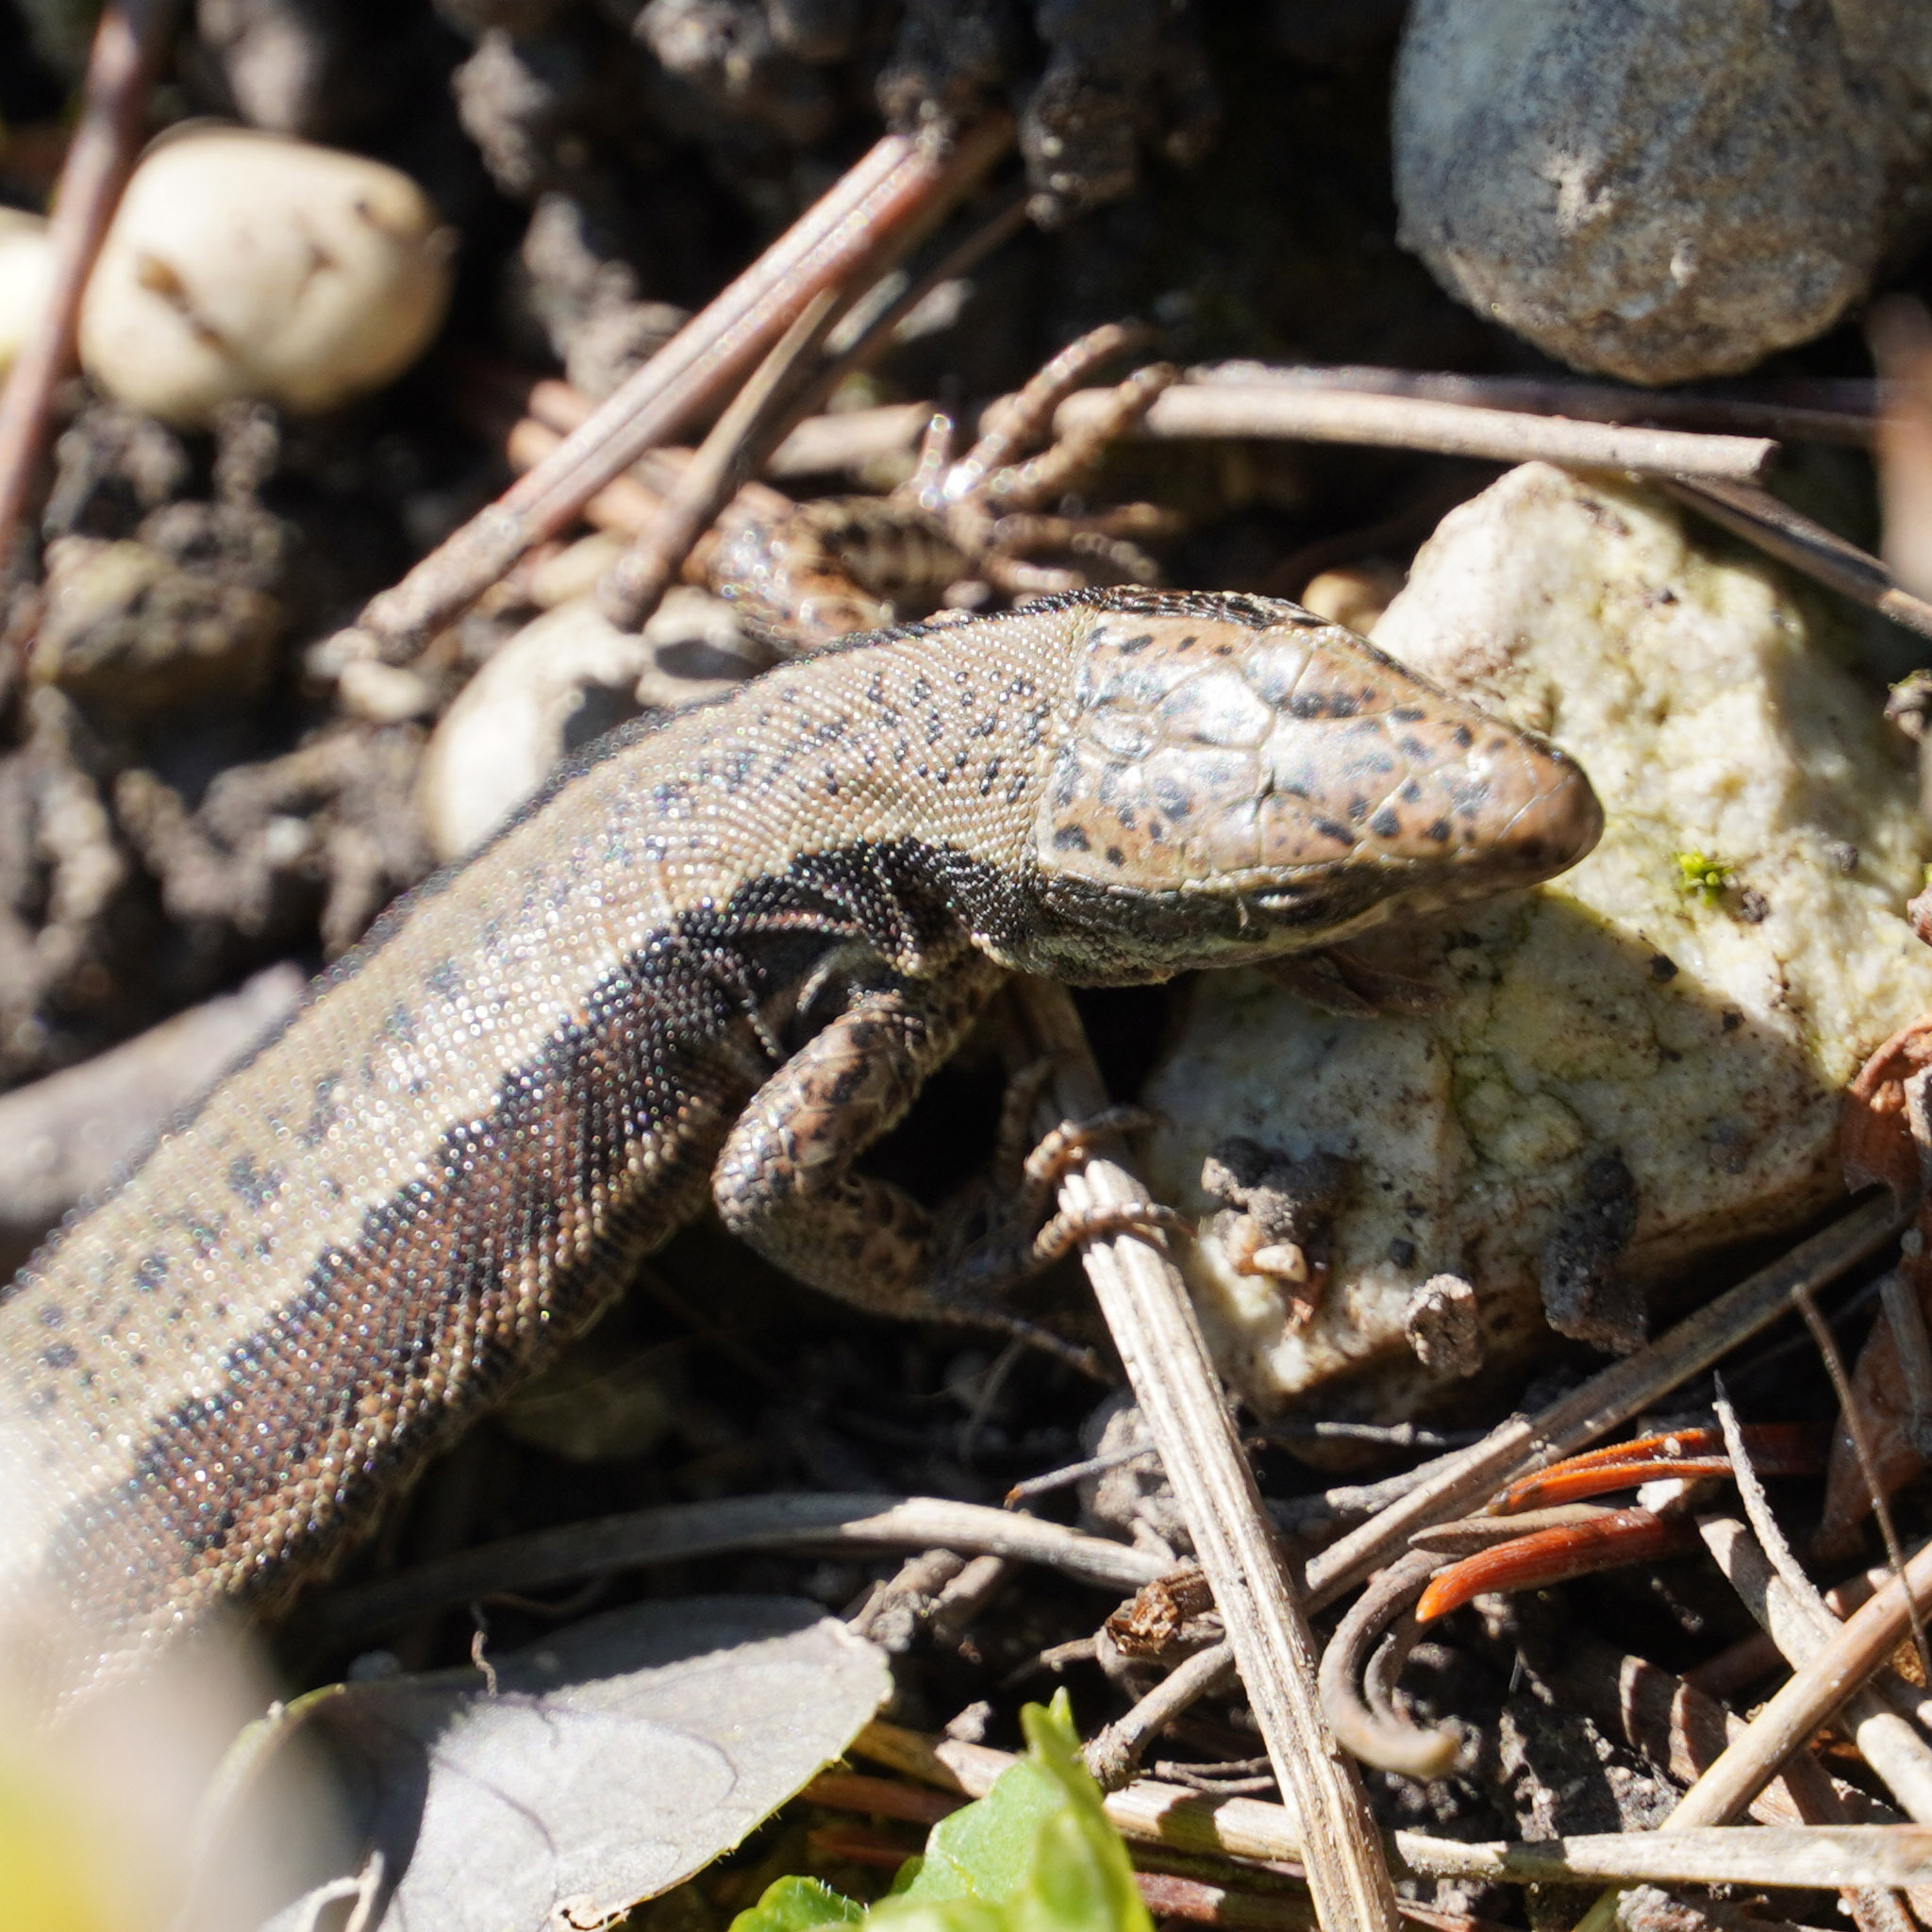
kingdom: Animalia
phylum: Chordata
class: Squamata
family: Lacertidae
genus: Podarcis
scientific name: Podarcis muralis
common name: Common wall lizard
